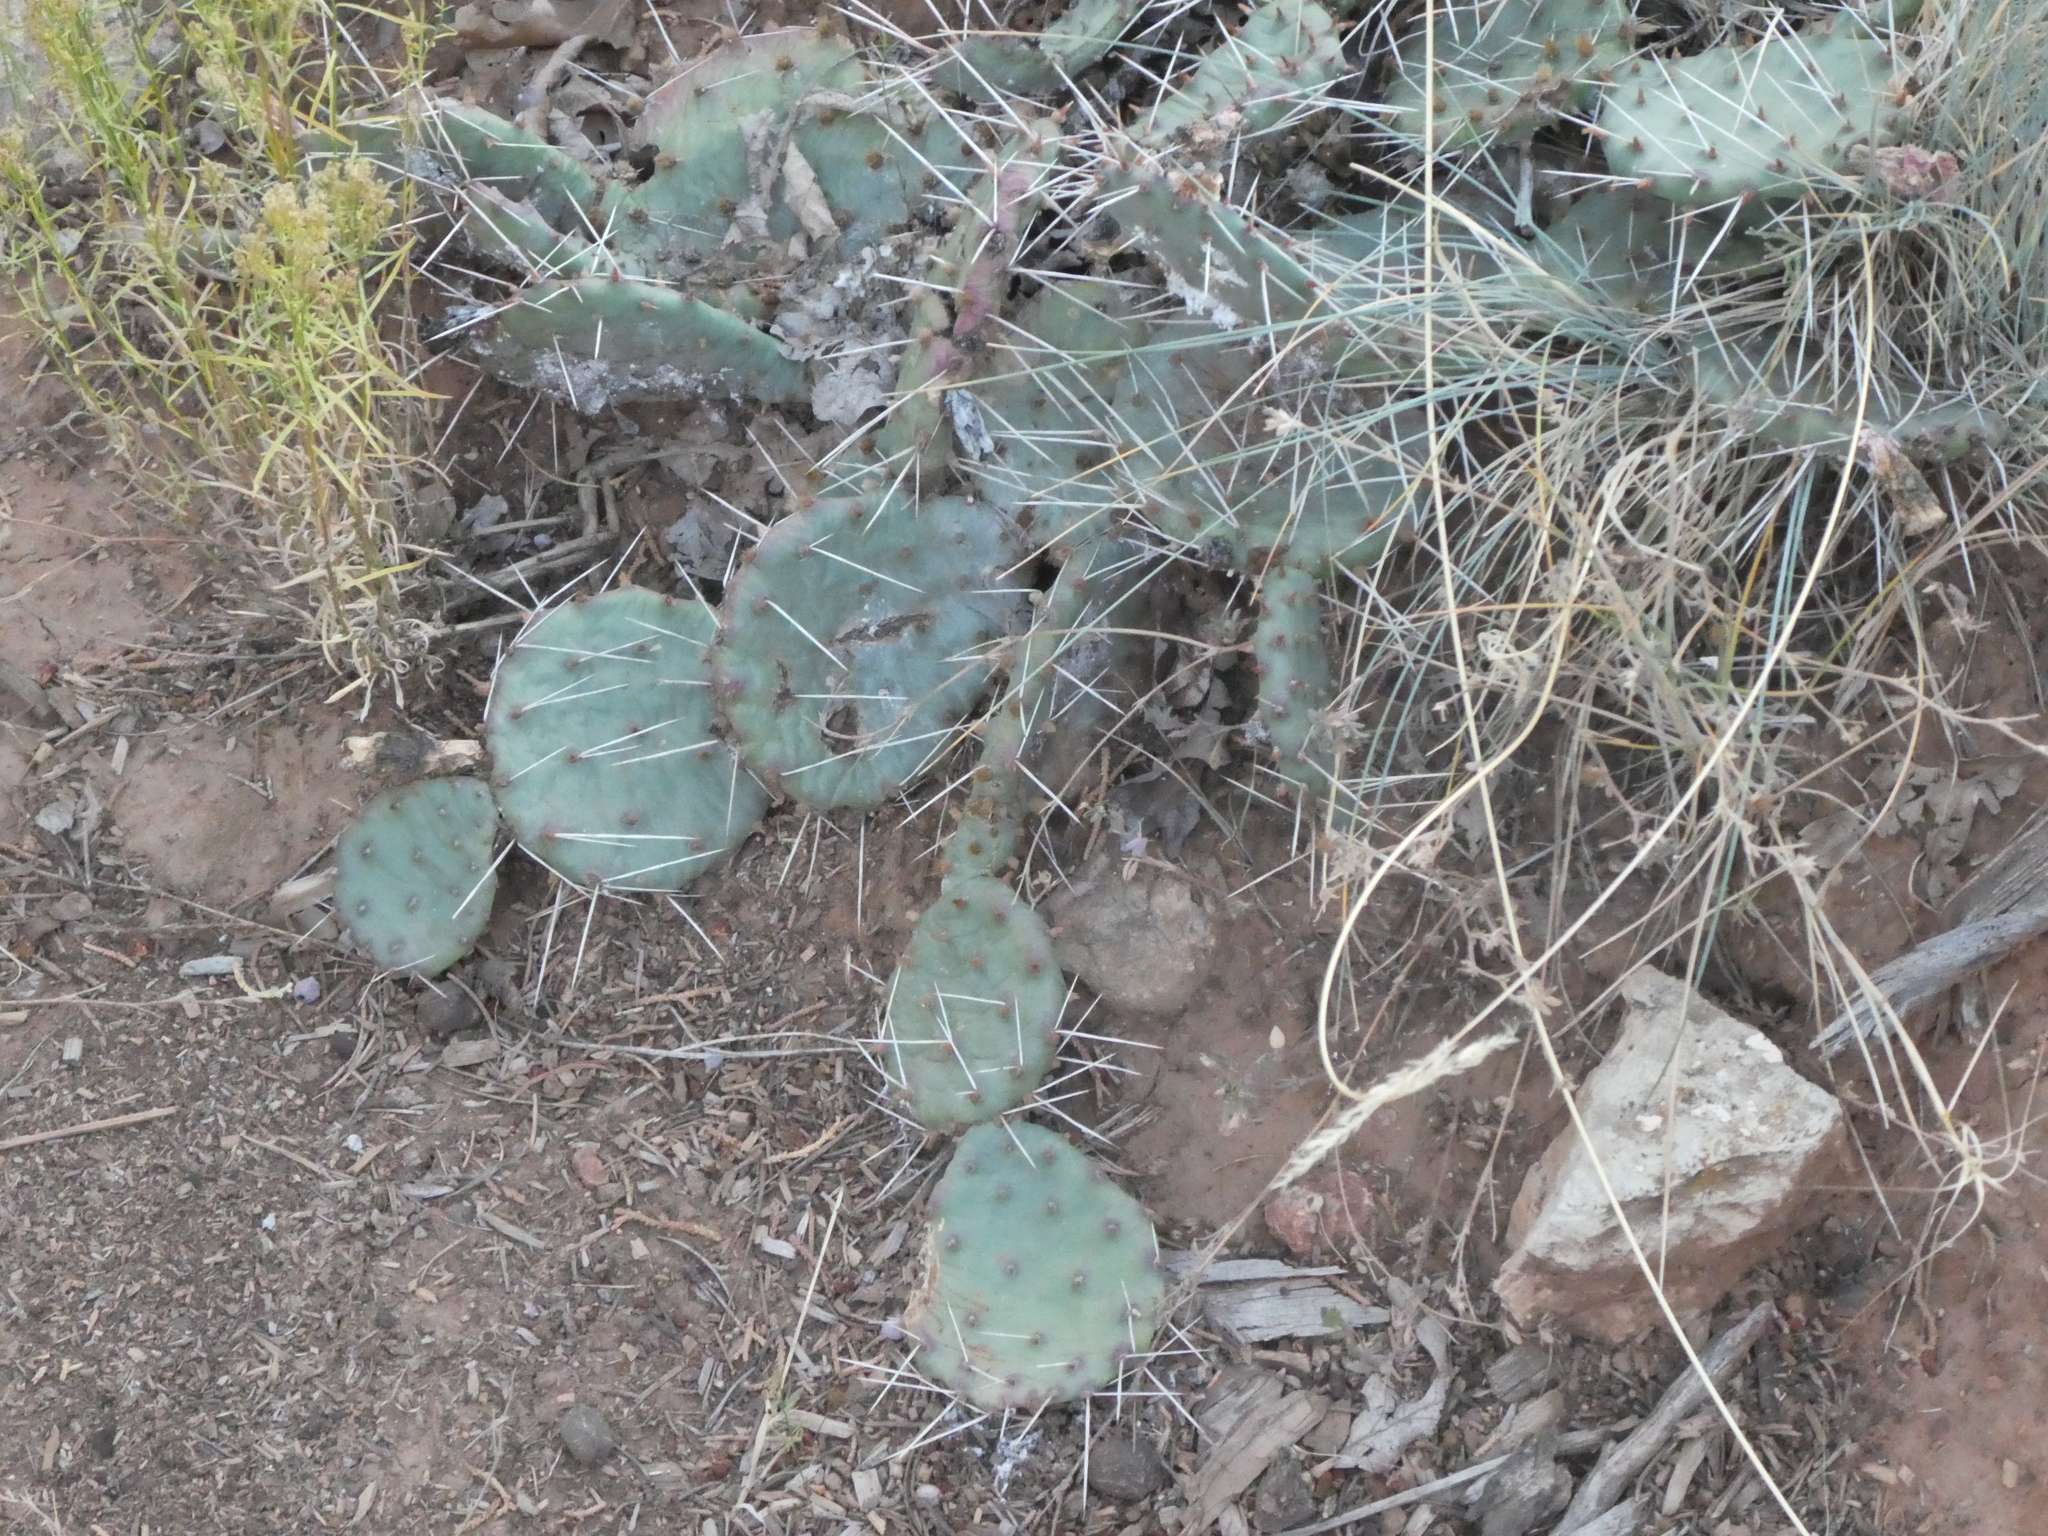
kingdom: Plantae
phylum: Tracheophyta
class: Magnoliopsida
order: Caryophyllales
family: Cactaceae
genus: Opuntia
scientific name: Opuntia pottsii
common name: Potts's prickly-pear
